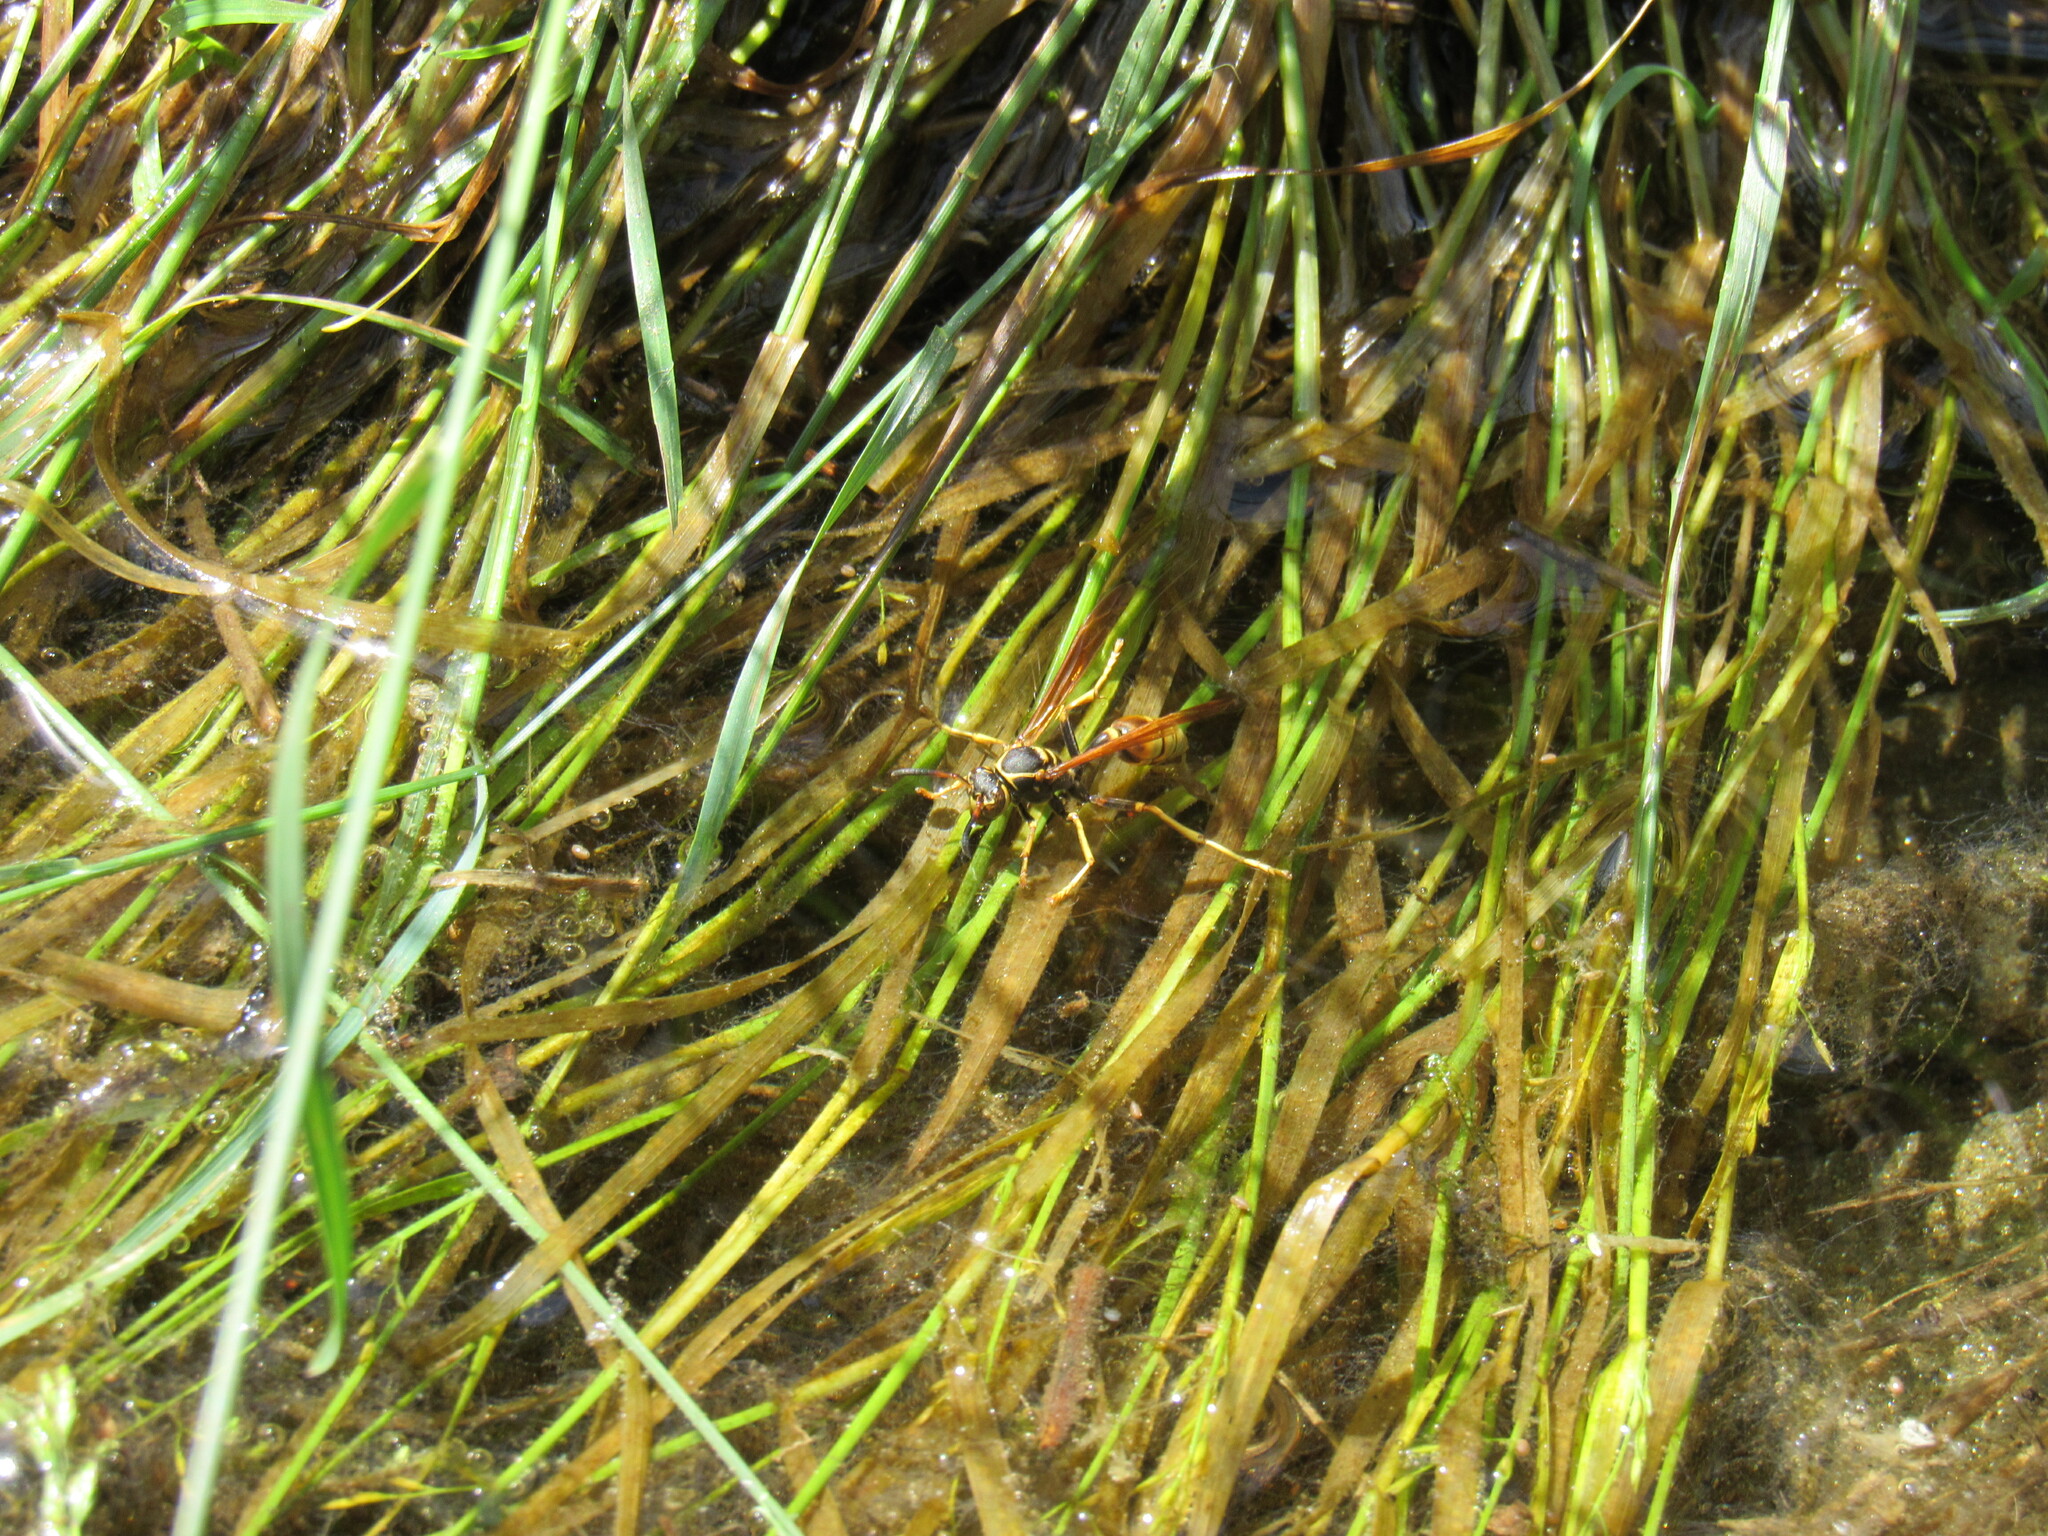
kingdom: Animalia
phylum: Arthropoda
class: Insecta
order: Hymenoptera
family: Vespidae
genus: Mischocyttarus
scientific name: Mischocyttarus flavitarsis
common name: Wasp
